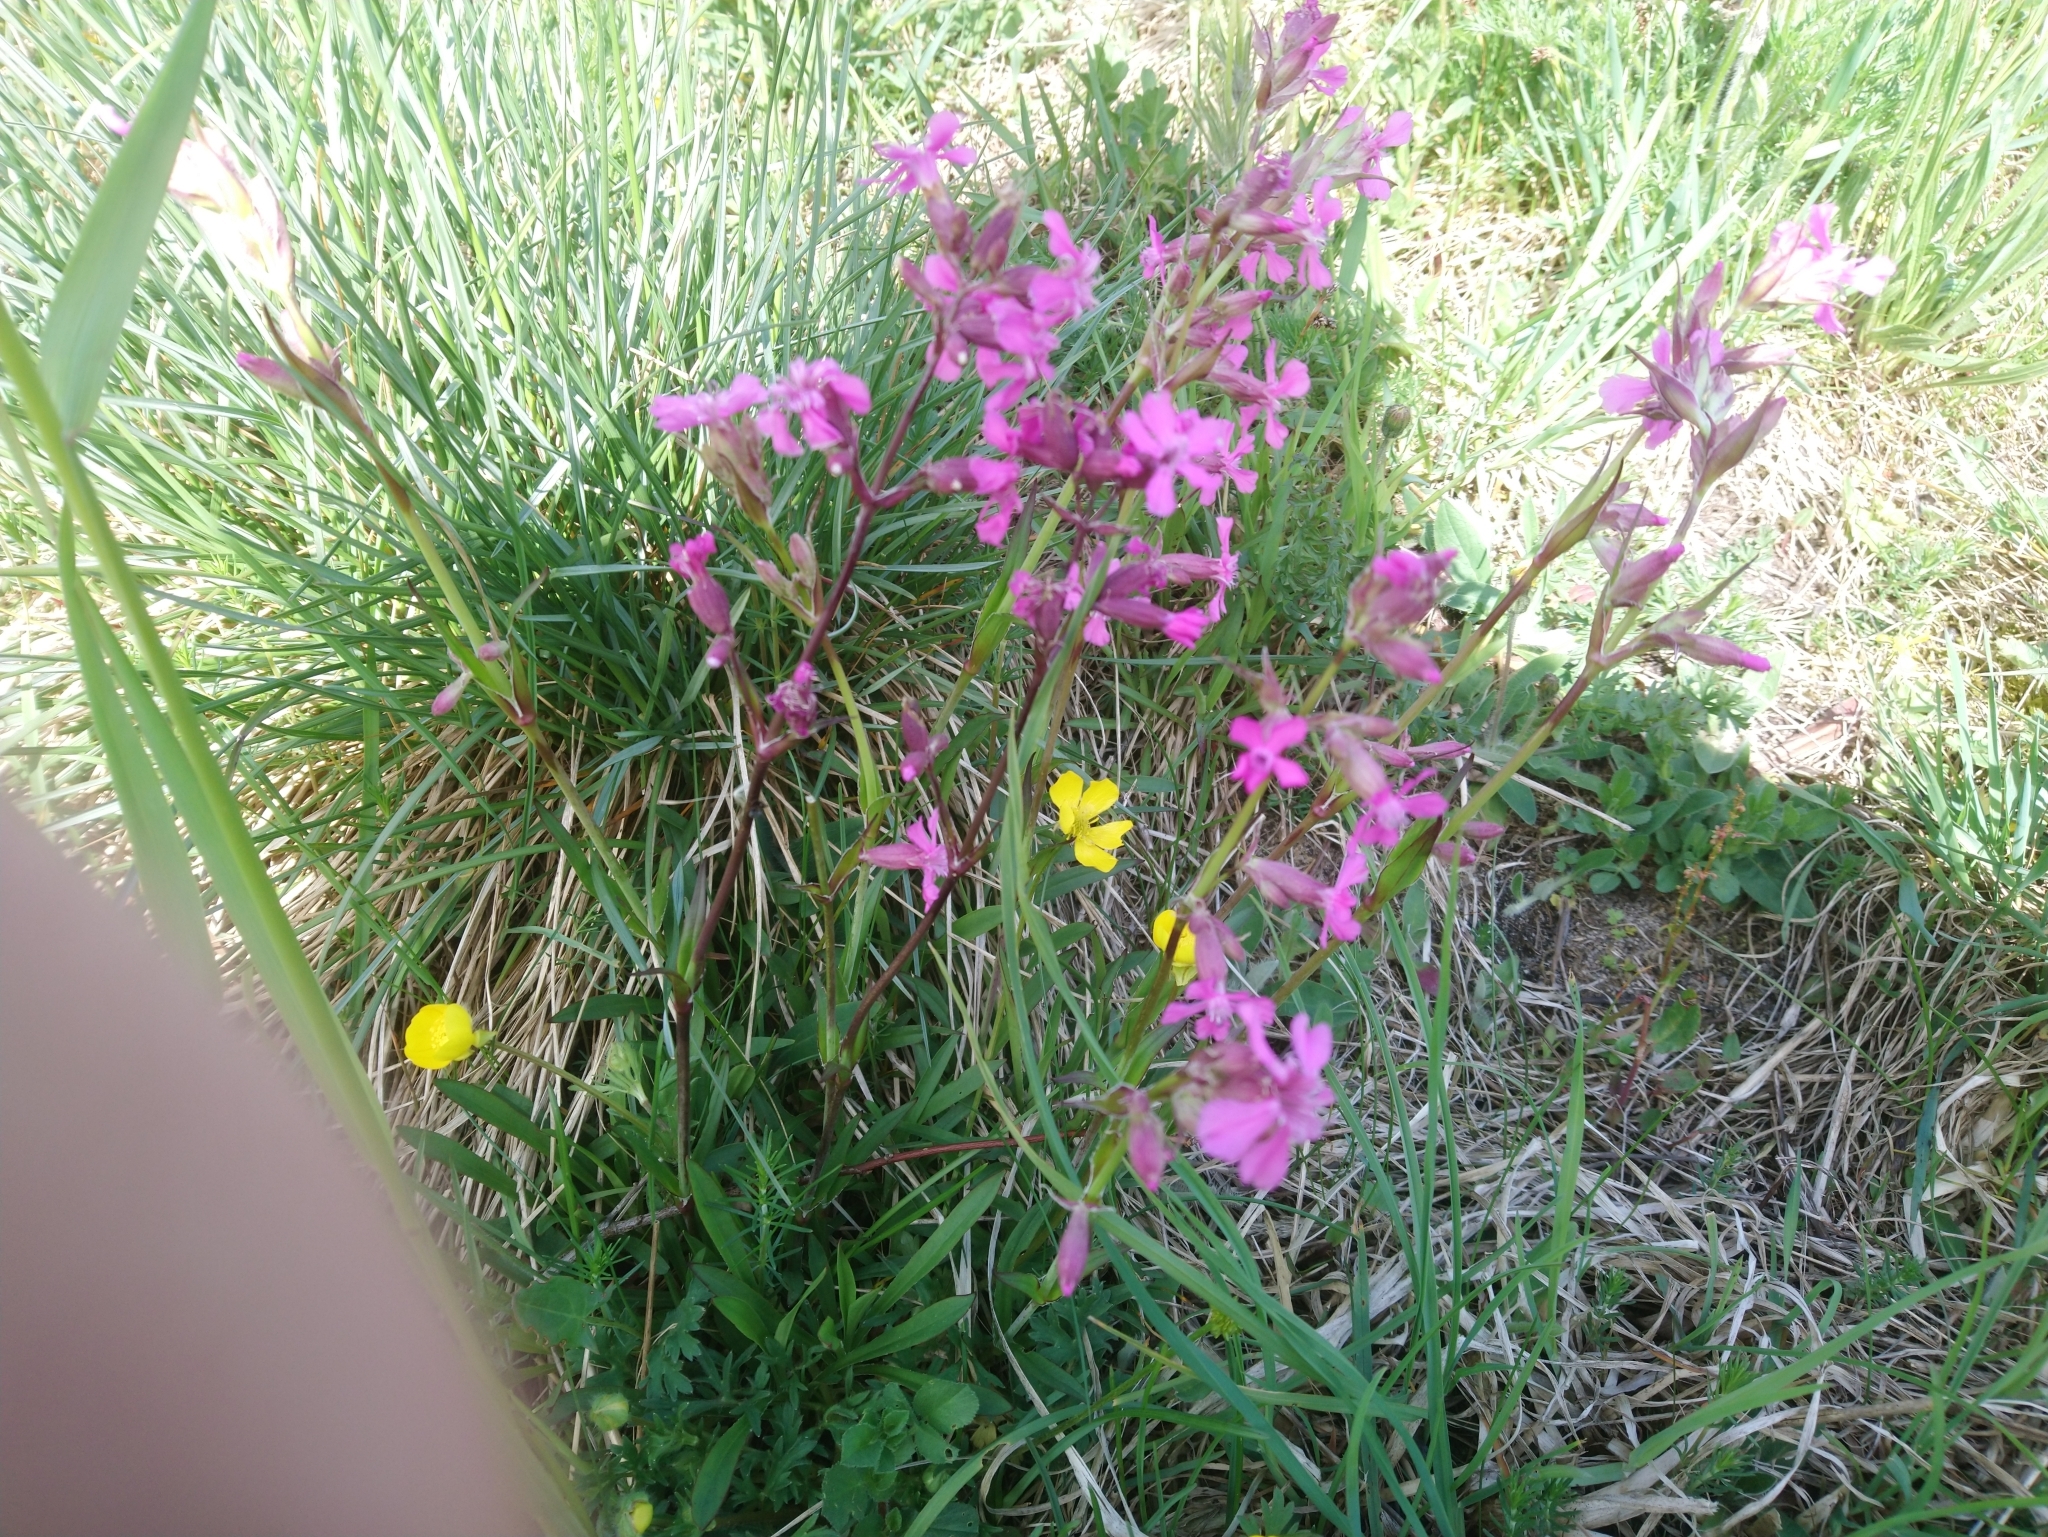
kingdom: Plantae
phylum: Tracheophyta
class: Magnoliopsida
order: Caryophyllales
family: Caryophyllaceae
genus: Viscaria
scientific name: Viscaria vulgaris
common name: Clammy campion
